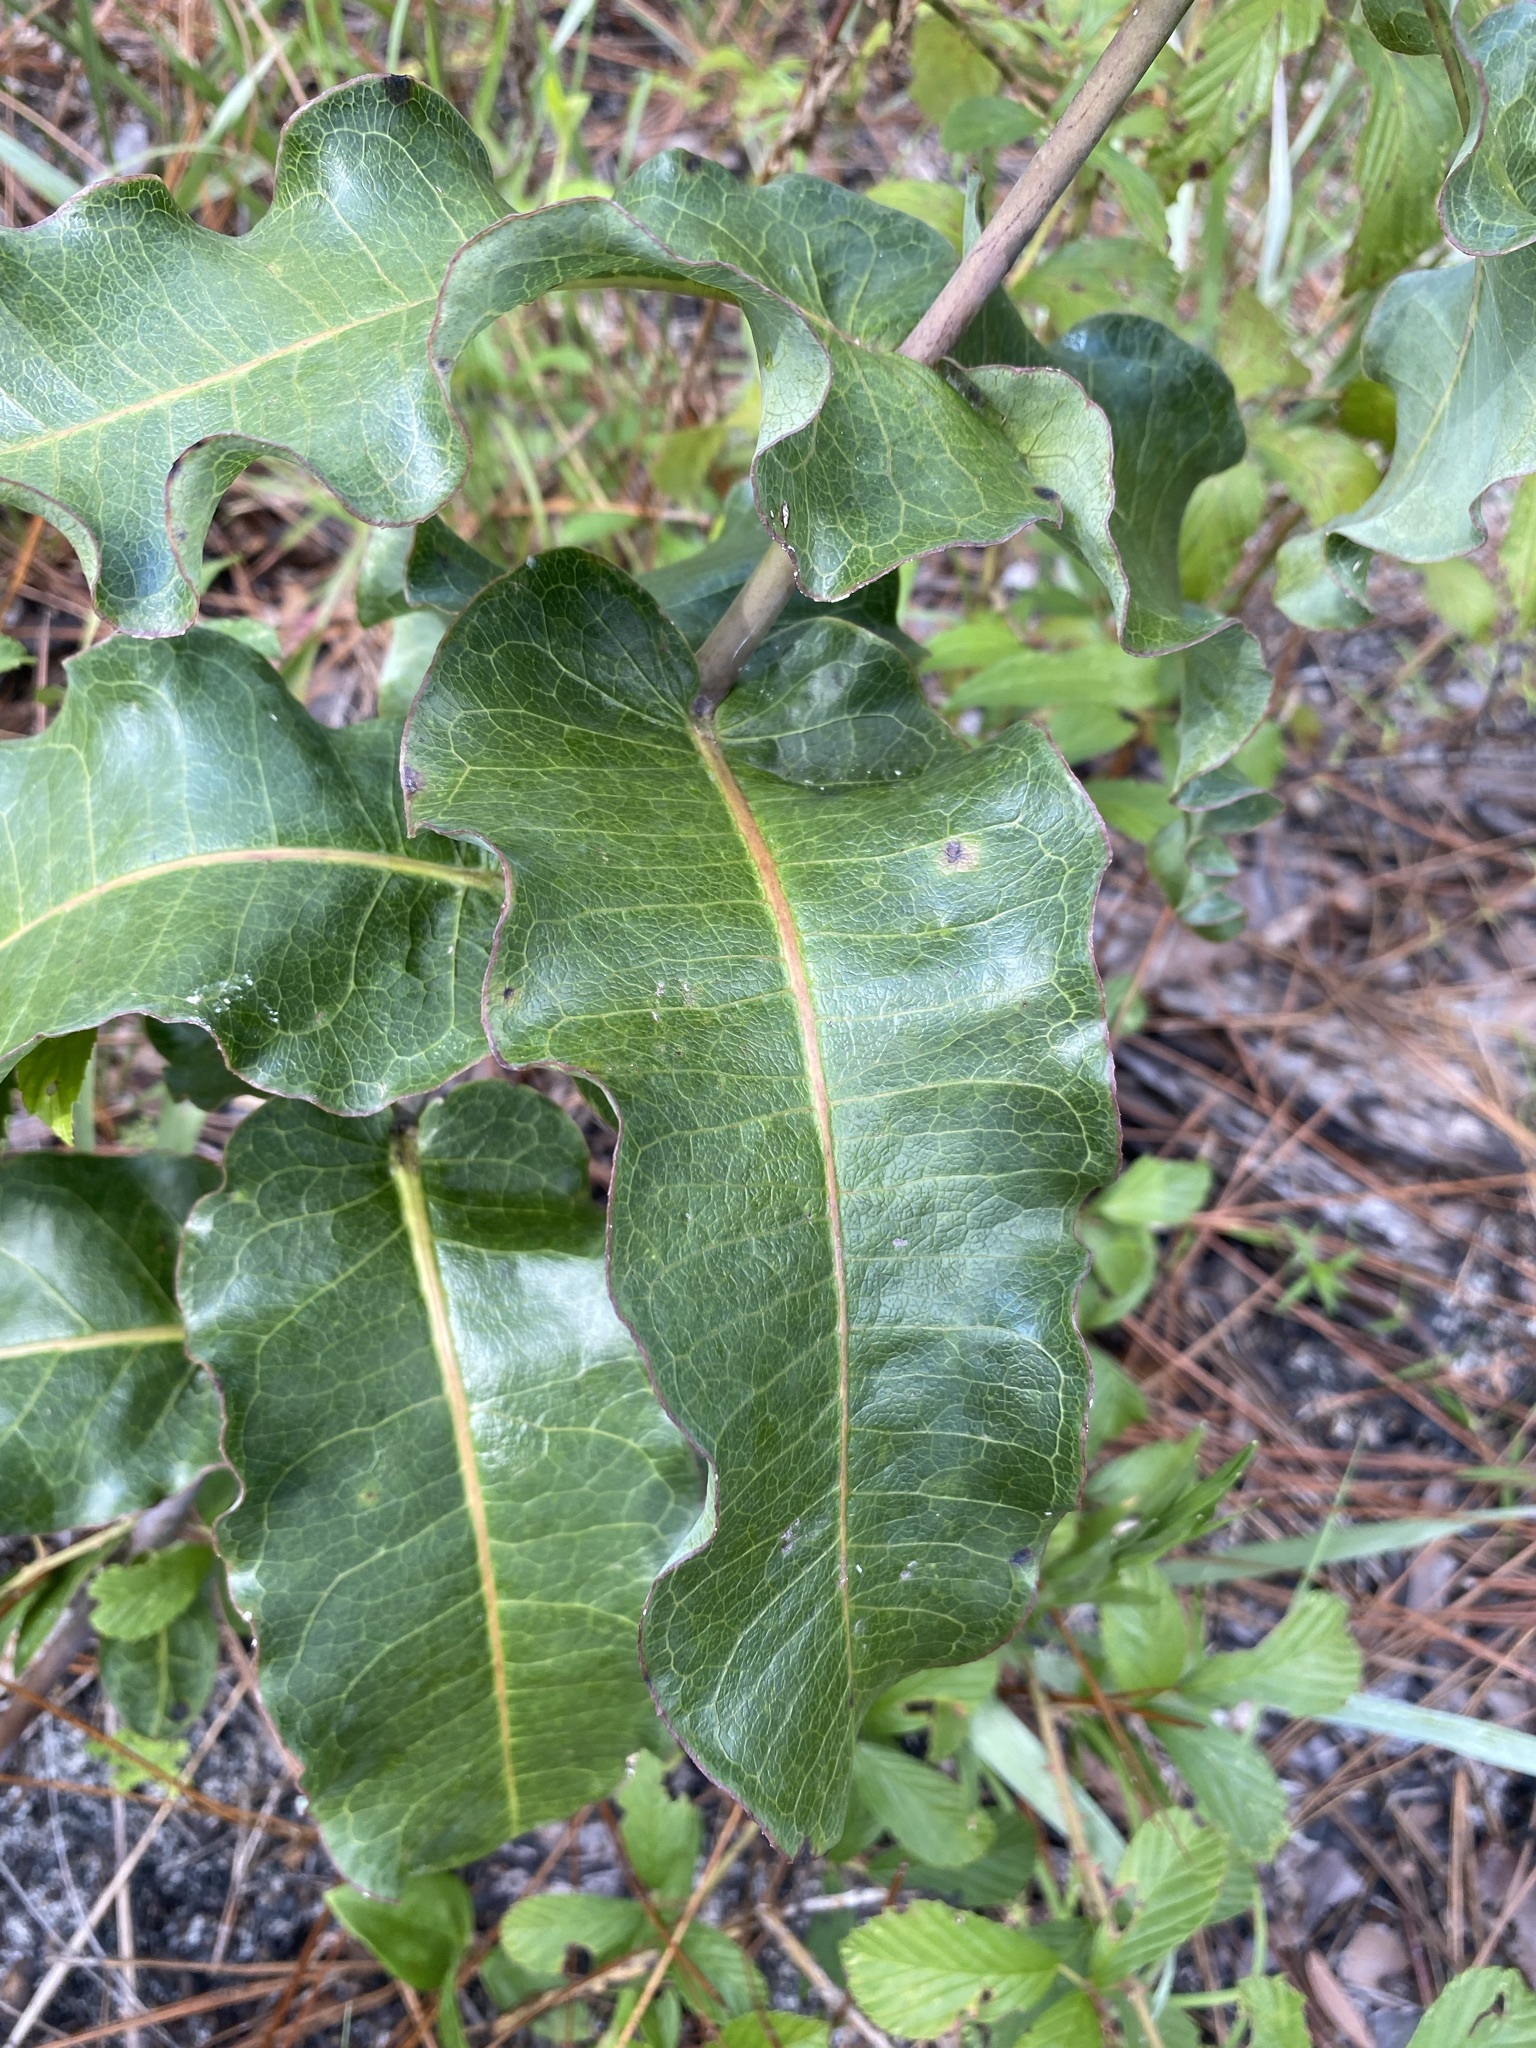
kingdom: Plantae
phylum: Tracheophyta
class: Magnoliopsida
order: Gentianales
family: Apocynaceae
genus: Asclepias
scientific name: Asclepias amplexicaulis
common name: Blunt-leaf milkweed
